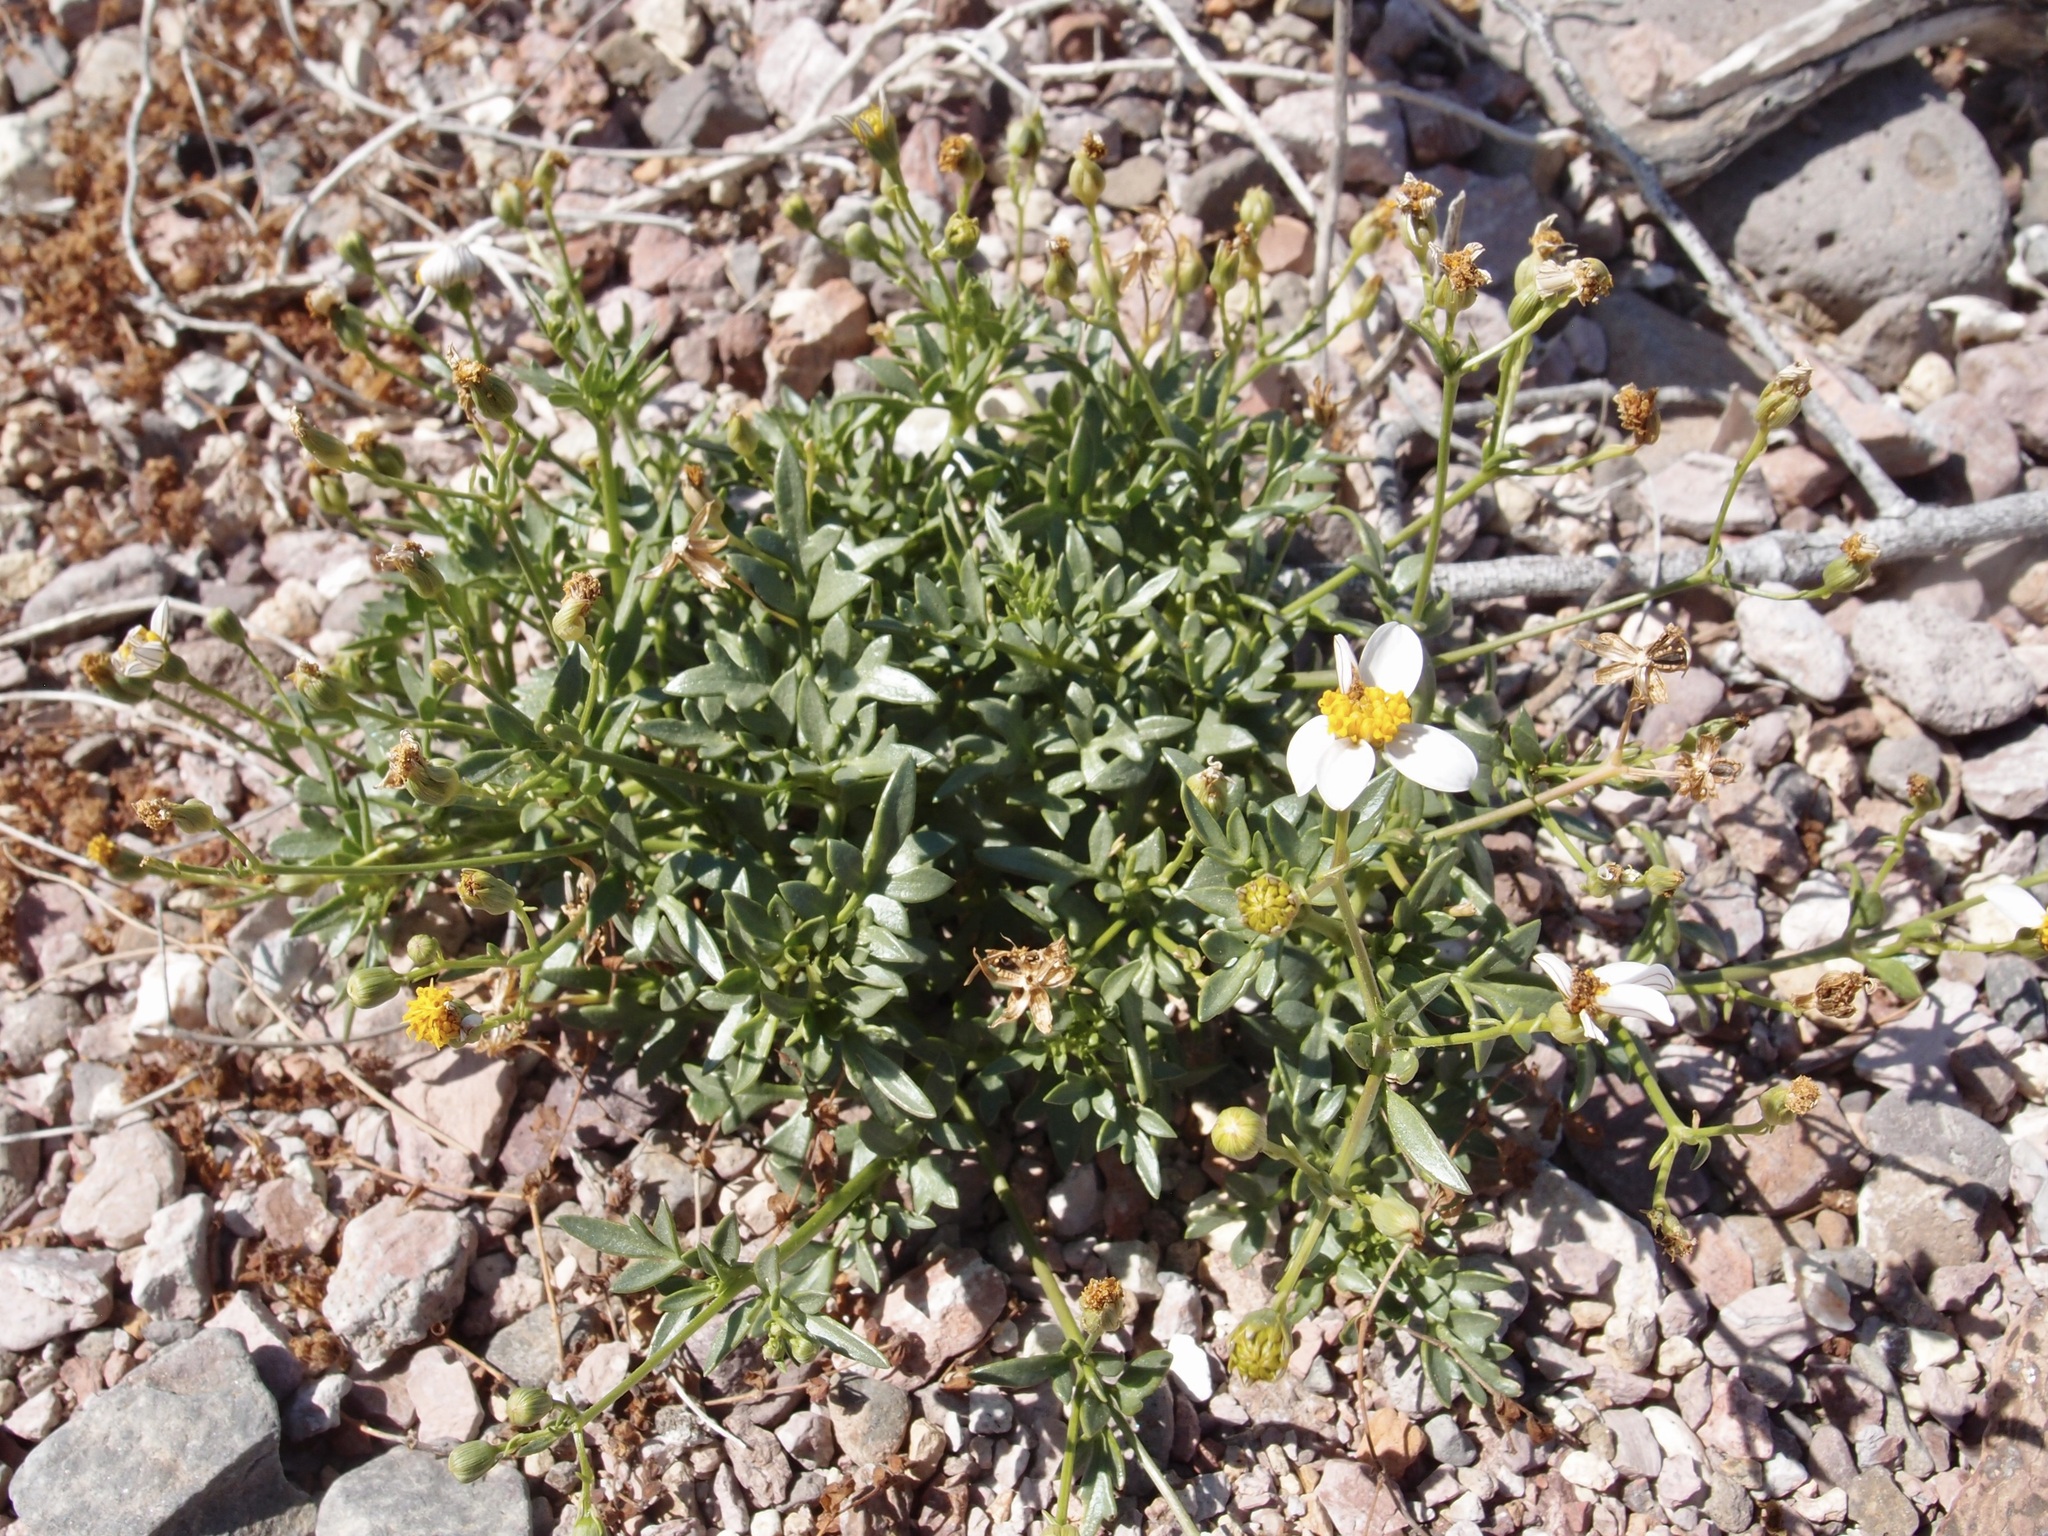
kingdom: Plantae
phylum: Tracheophyta
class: Magnoliopsida
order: Asterales
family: Asteraceae
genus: Coreocarpus
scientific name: Coreocarpus sonoranus
